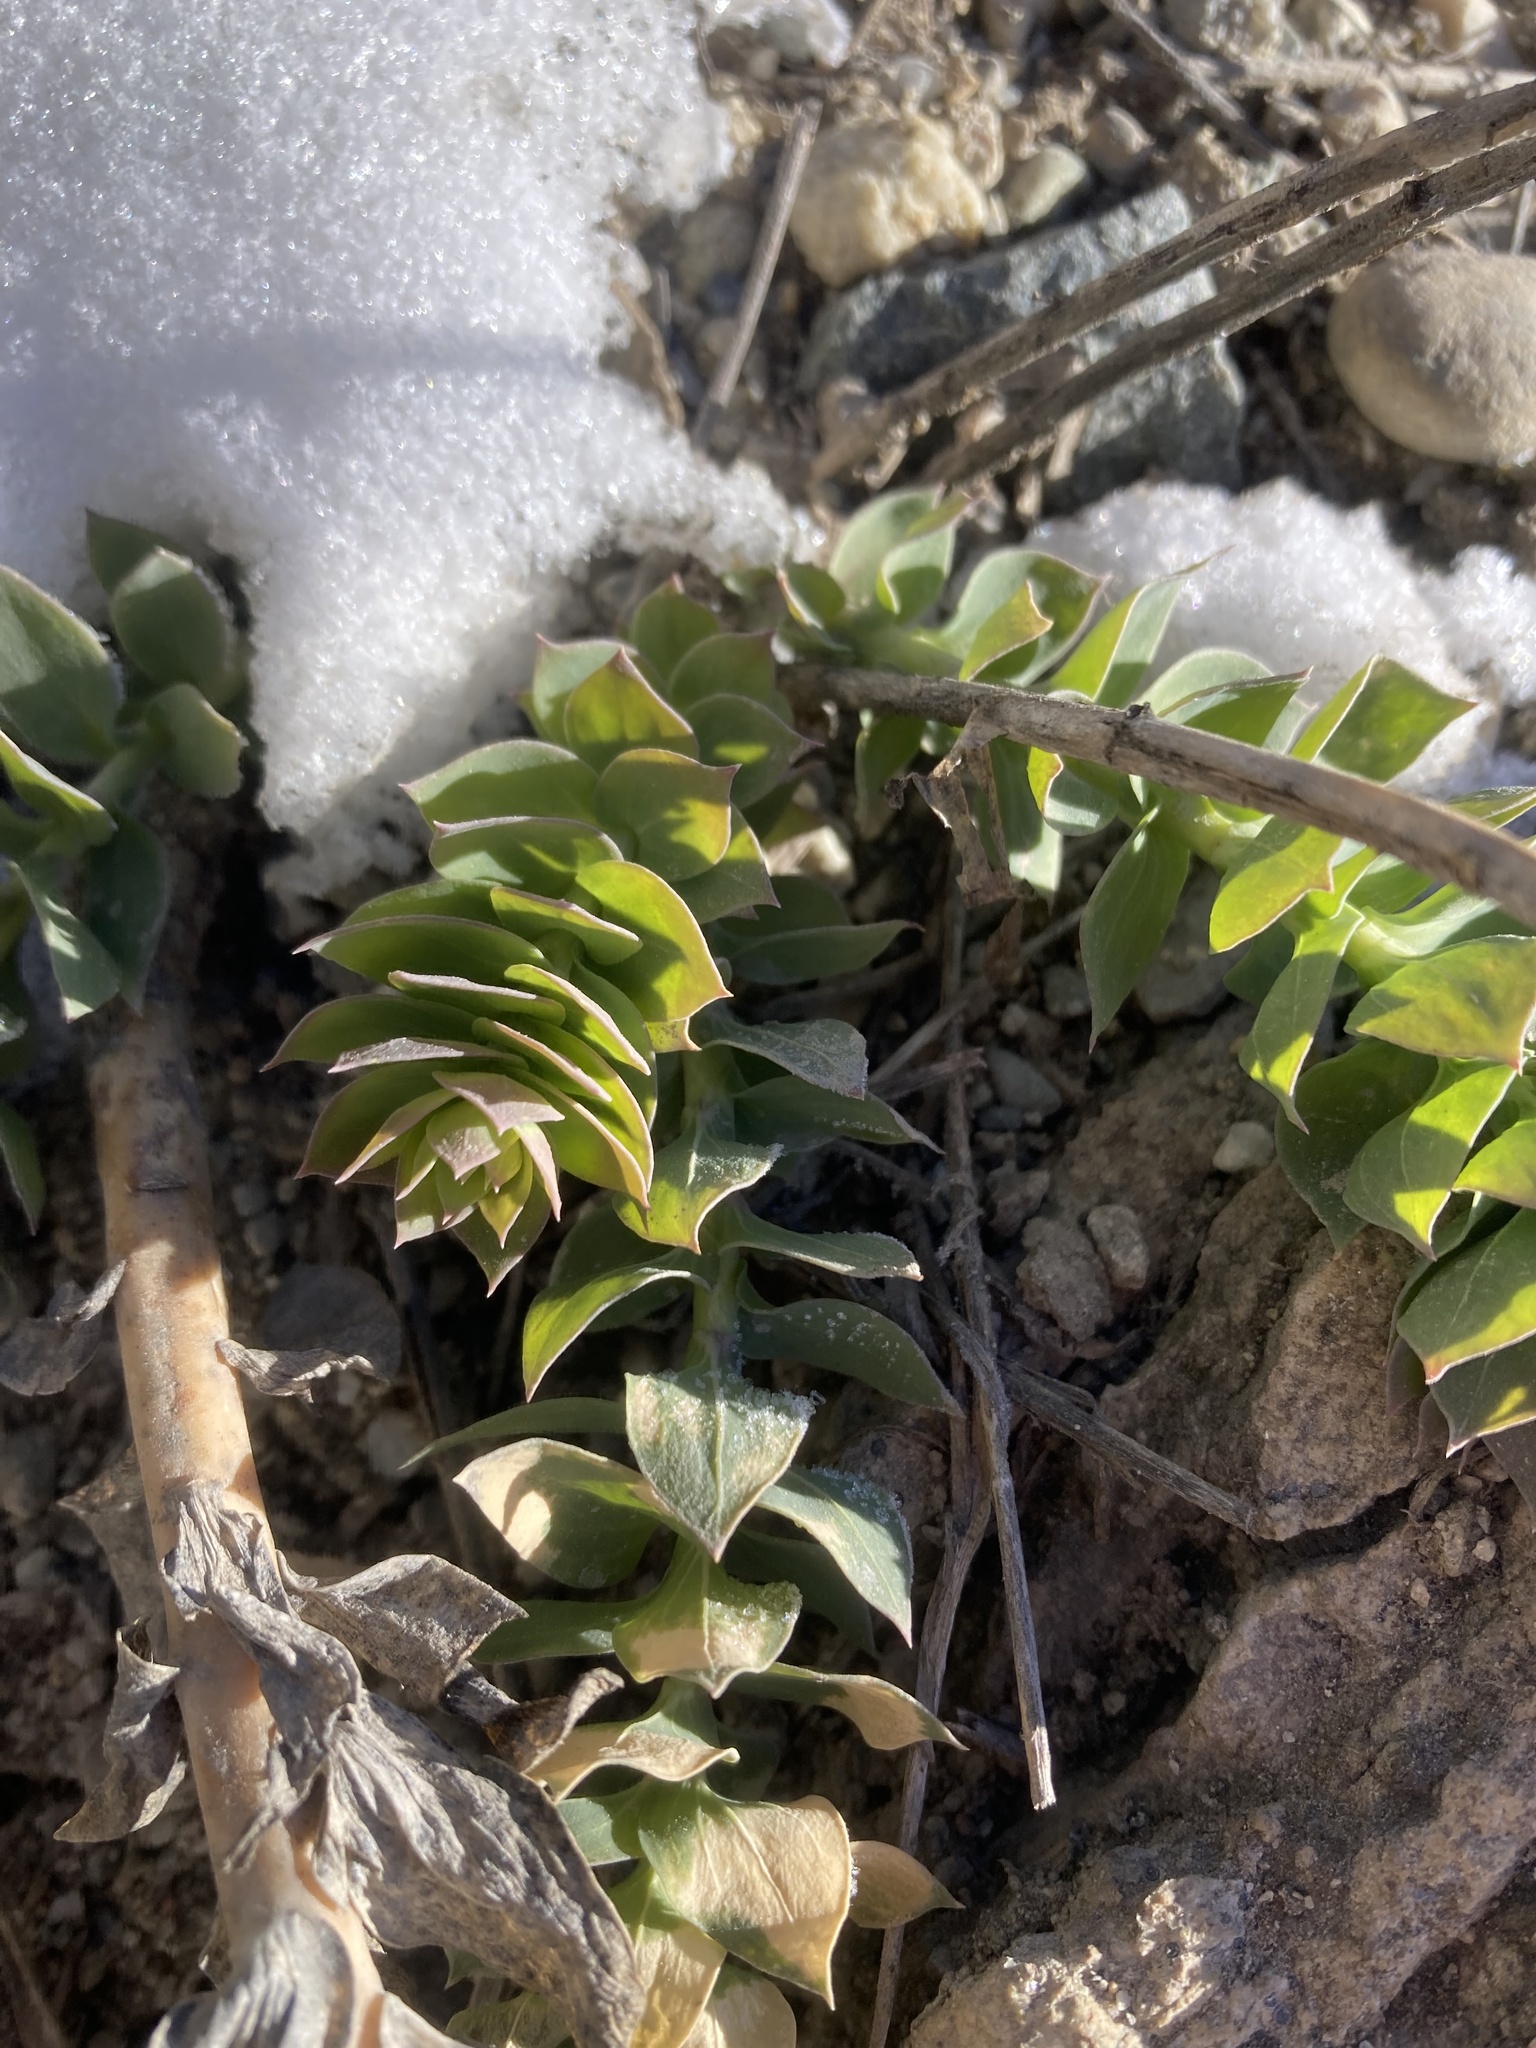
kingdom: Plantae
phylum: Tracheophyta
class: Magnoliopsida
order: Lamiales
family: Plantaginaceae
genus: Linaria
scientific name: Linaria dalmatica
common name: Dalmatian toadflax
